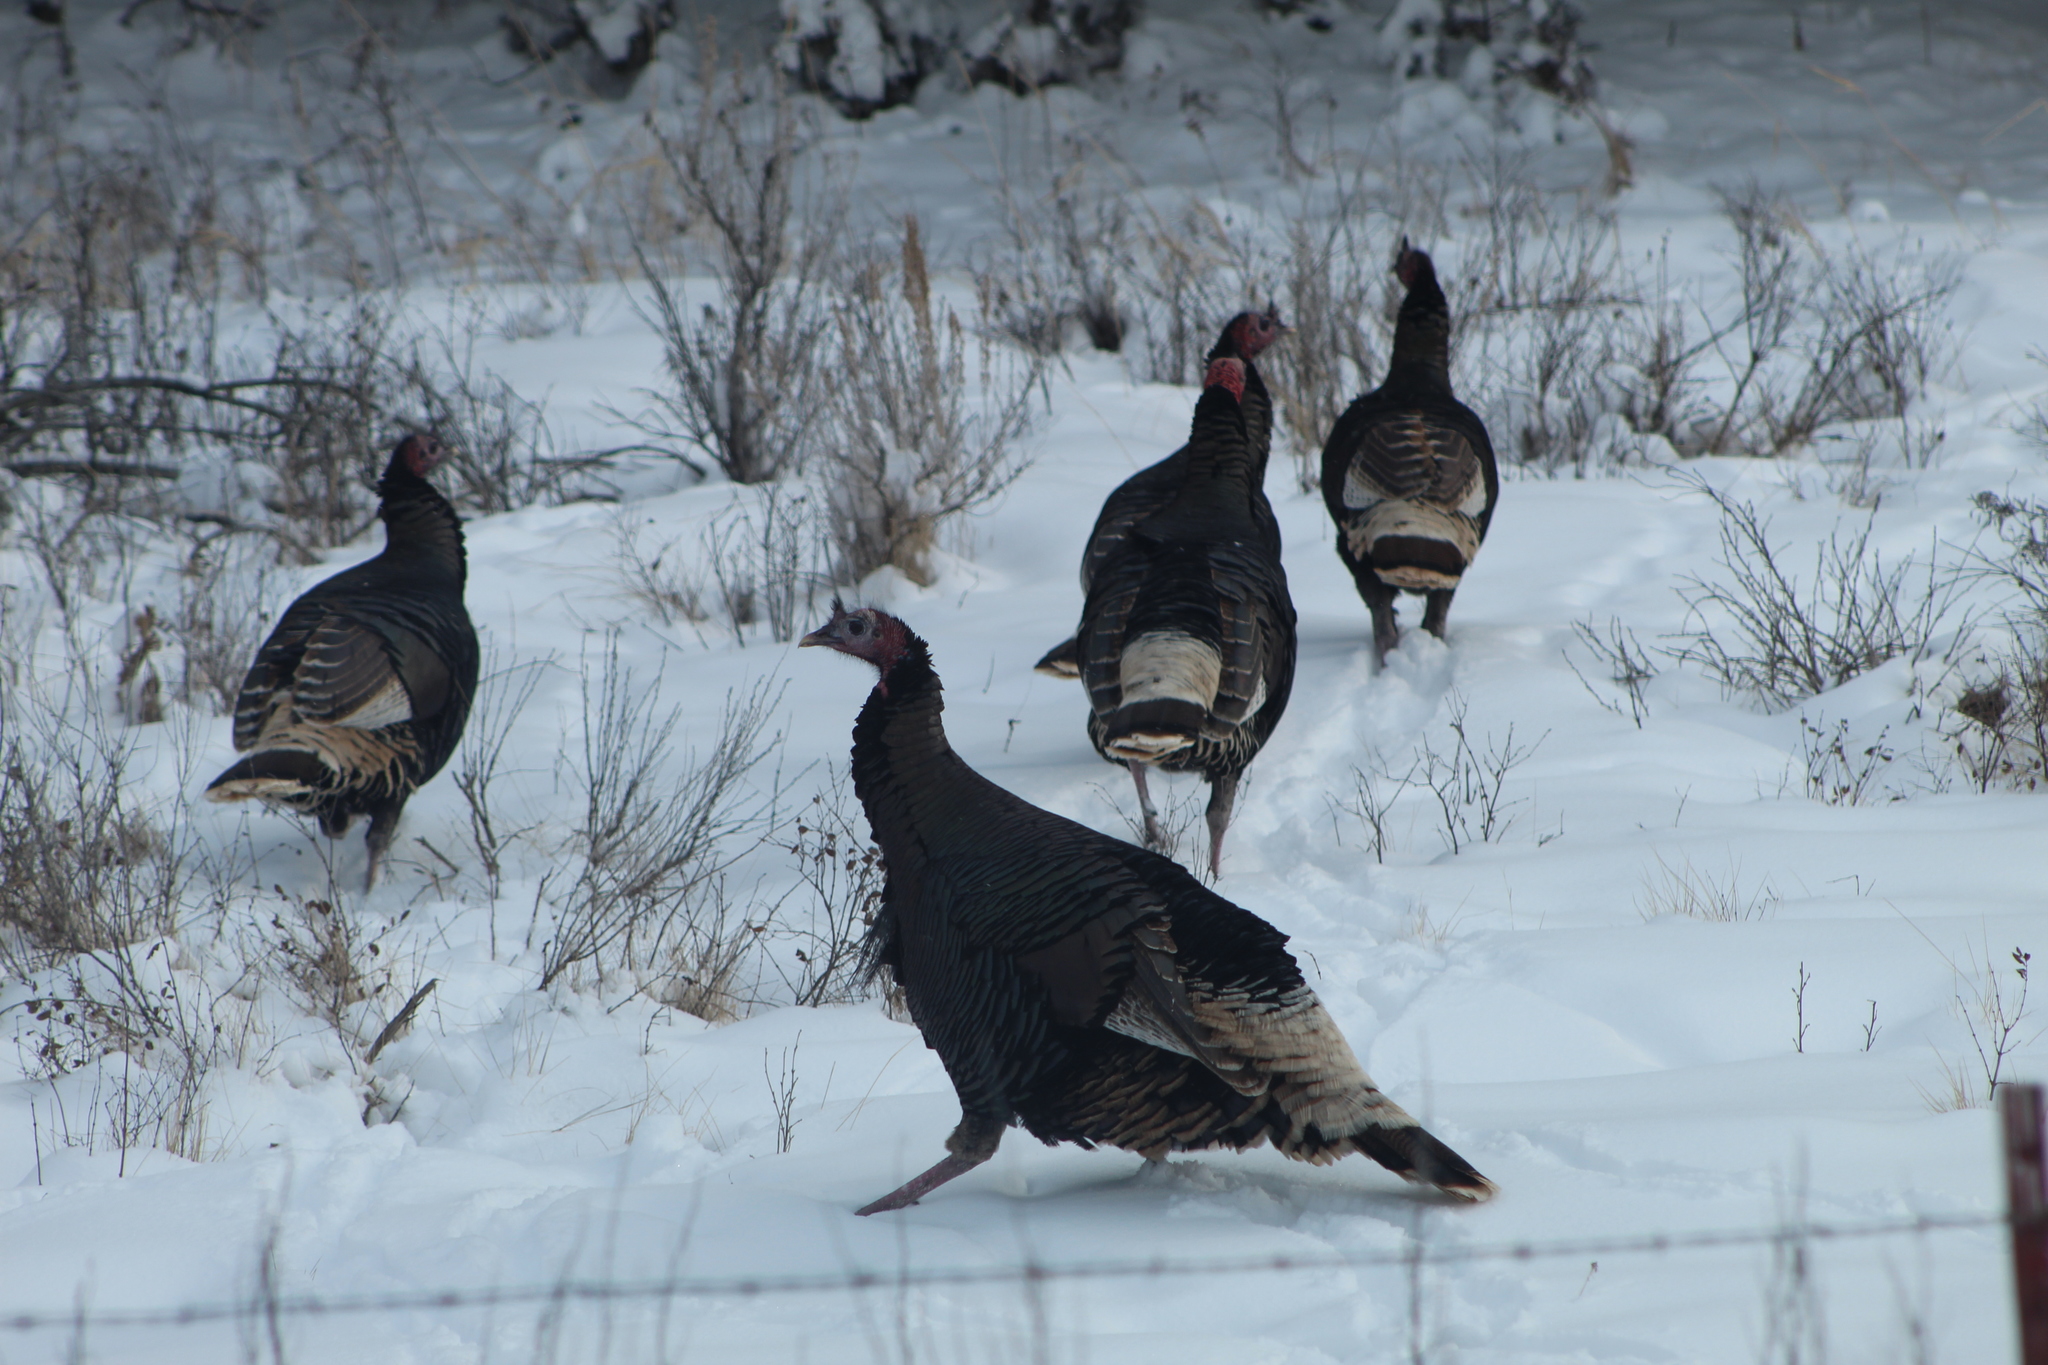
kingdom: Animalia
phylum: Chordata
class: Aves
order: Galliformes
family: Phasianidae
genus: Meleagris
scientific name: Meleagris gallopavo
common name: Wild turkey
